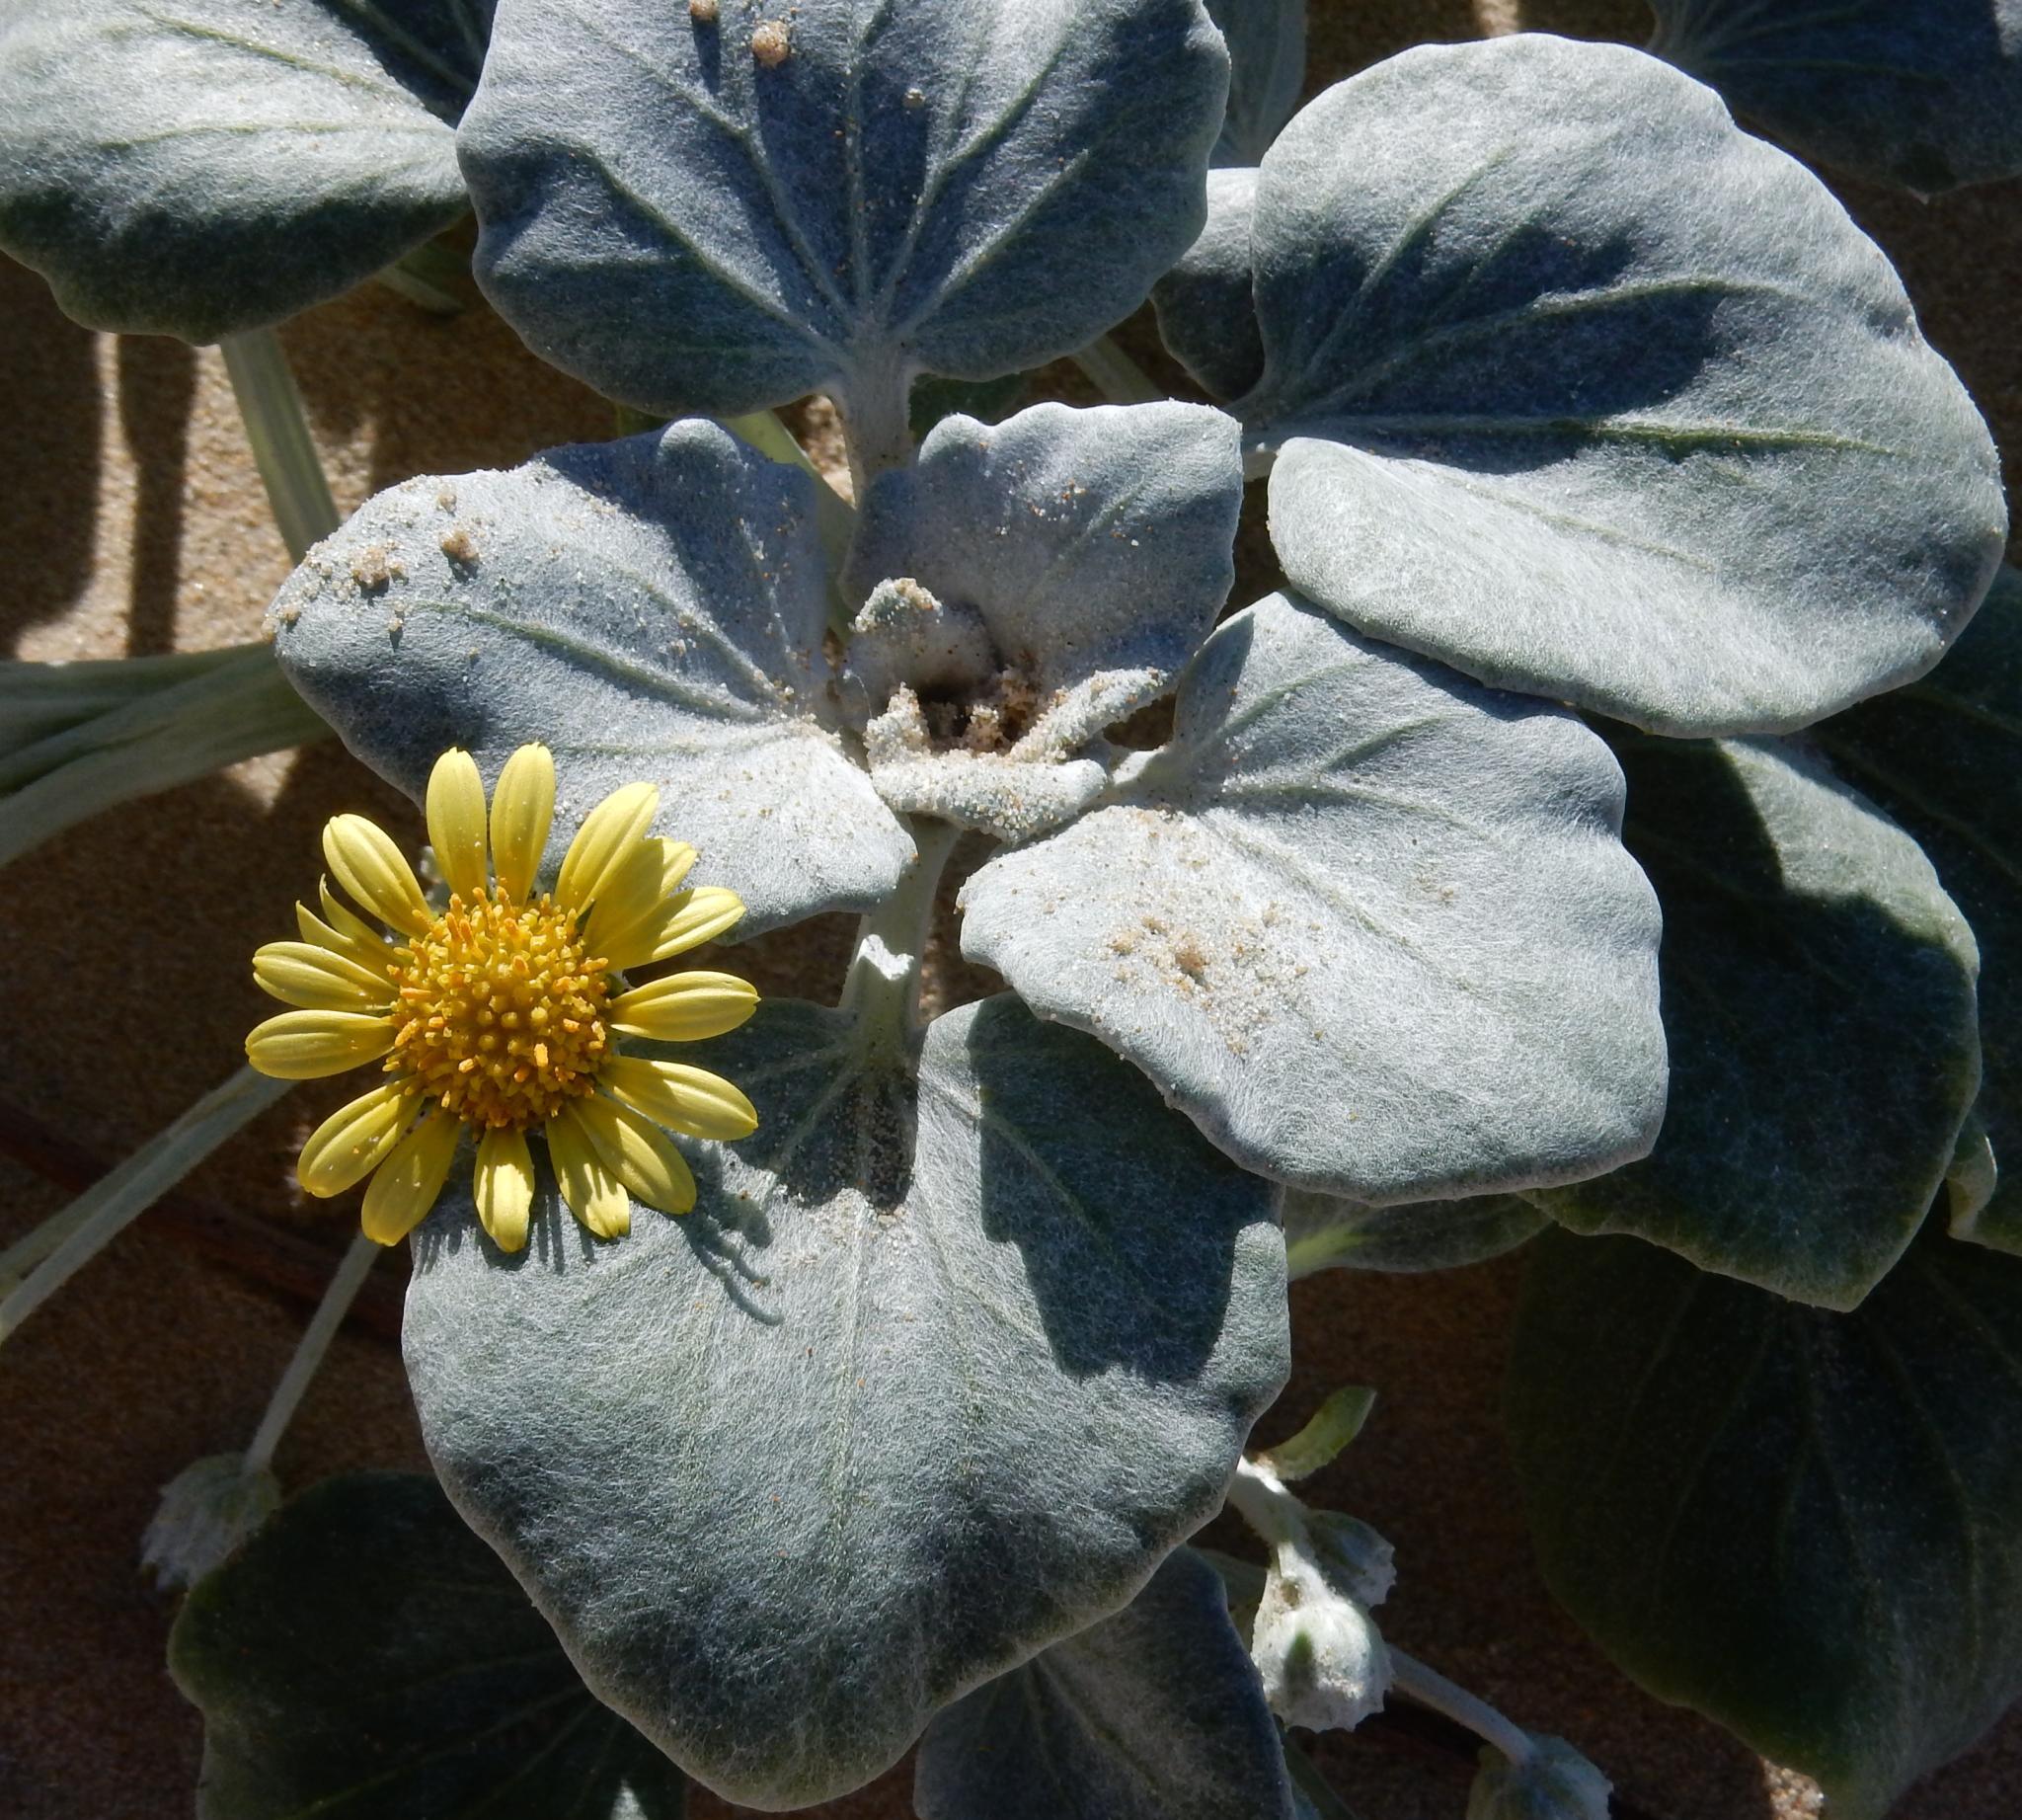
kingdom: Plantae
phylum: Tracheophyta
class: Magnoliopsida
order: Asterales
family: Asteraceae
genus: Arctotheca
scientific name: Arctotheca populifolia
